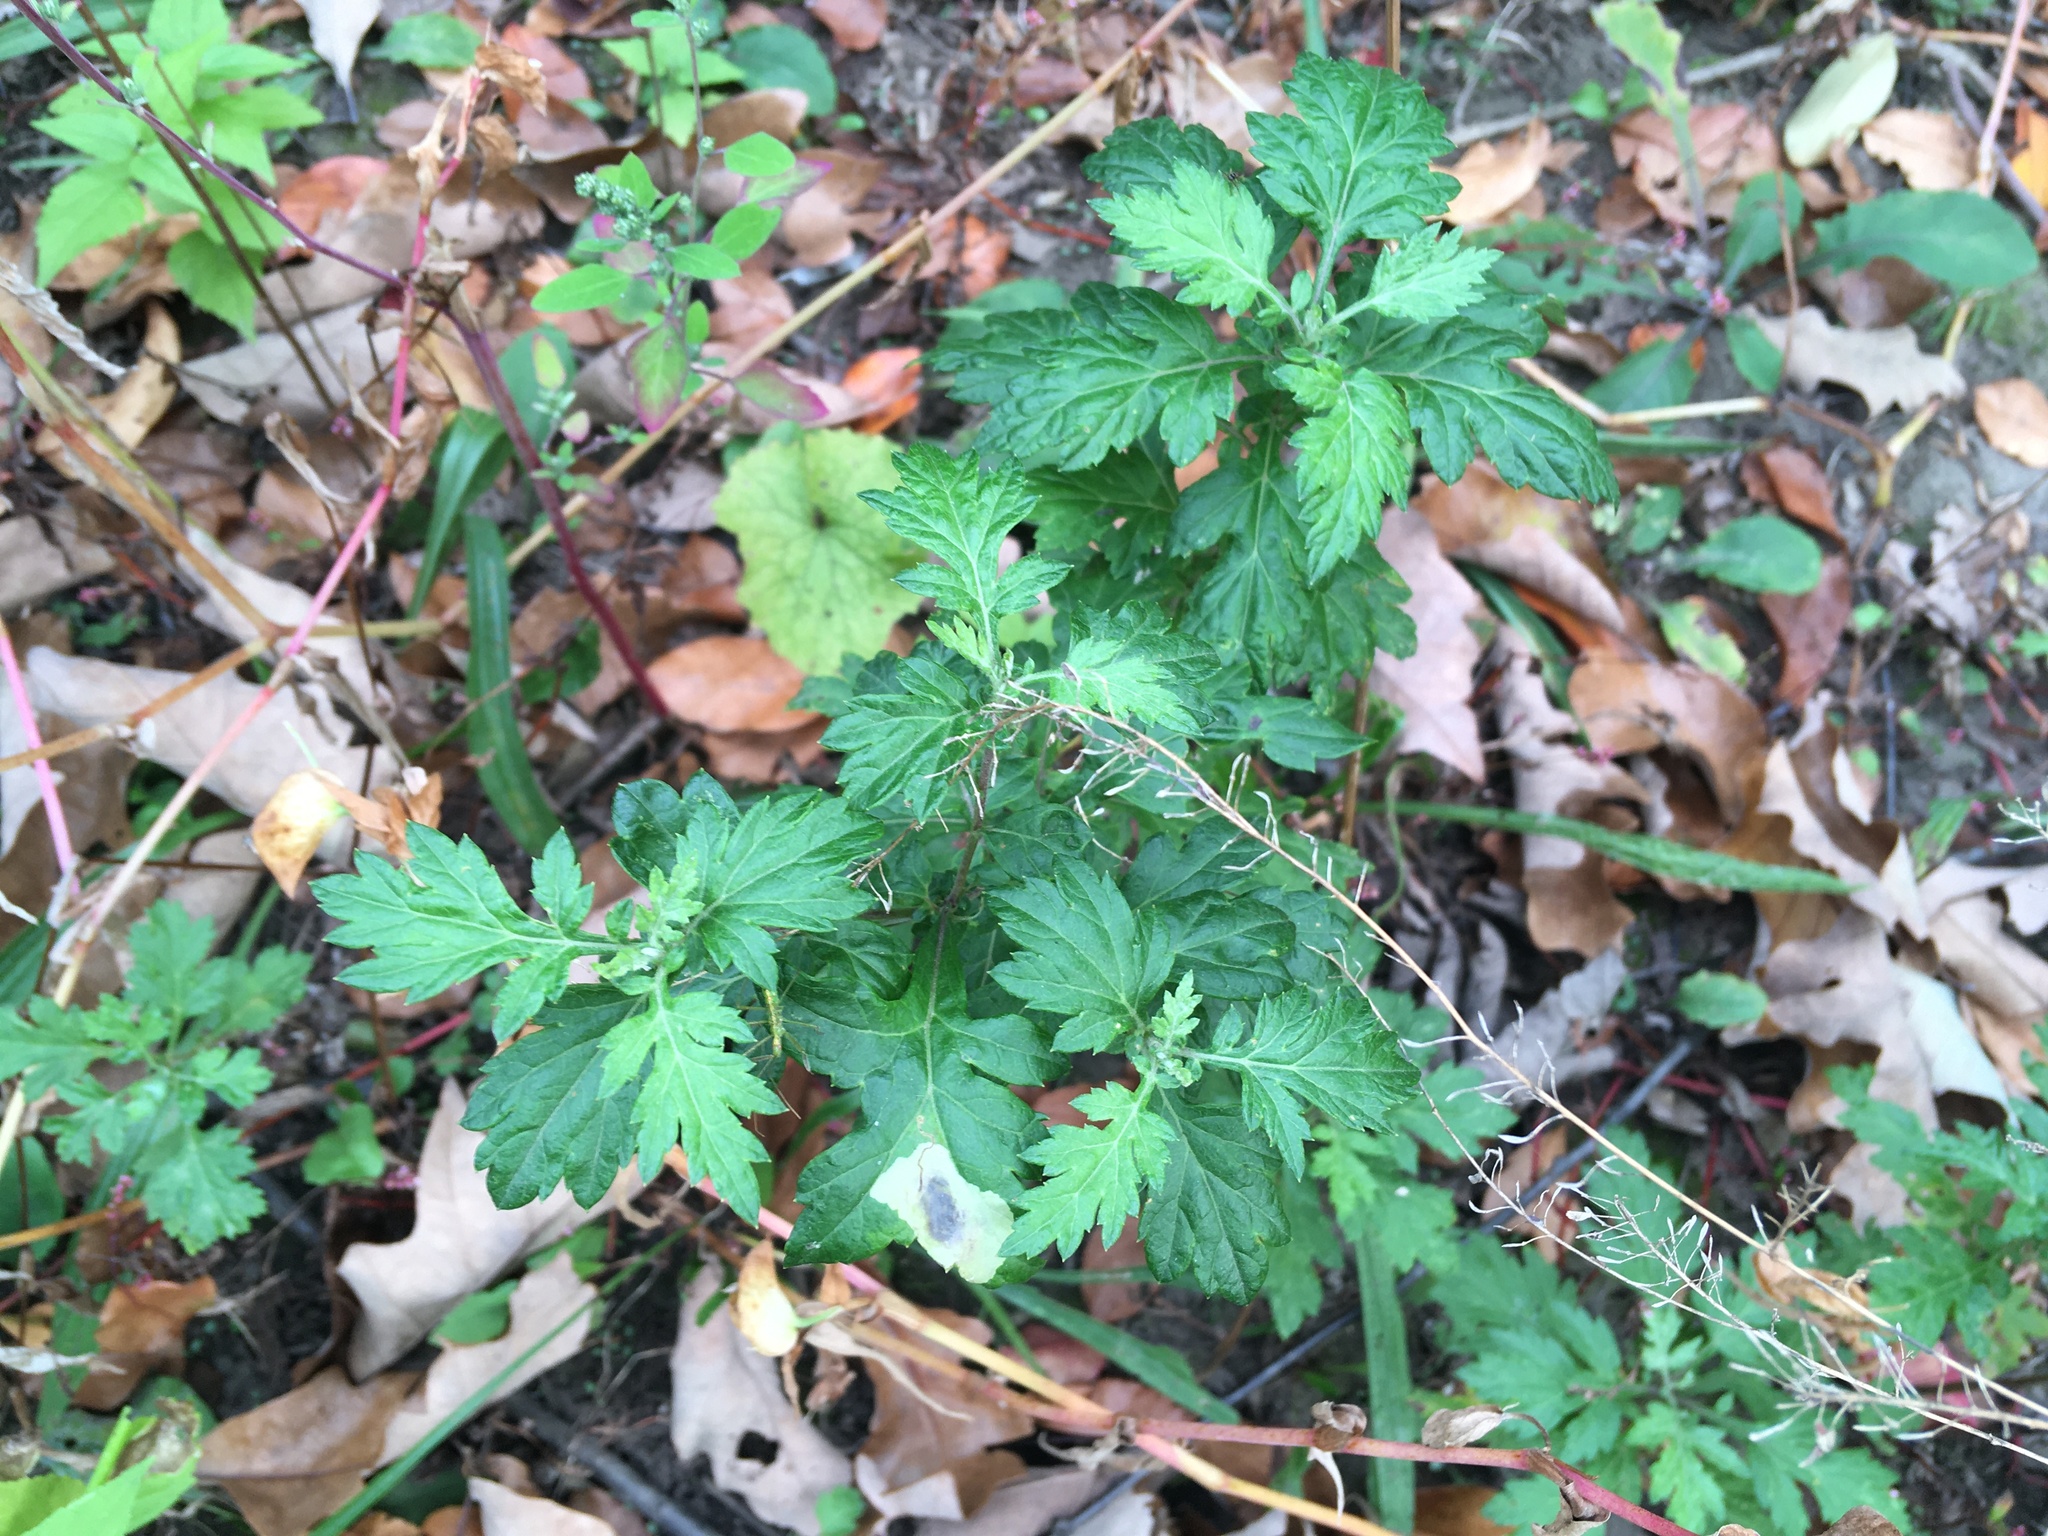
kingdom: Plantae
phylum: Tracheophyta
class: Magnoliopsida
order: Asterales
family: Asteraceae
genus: Artemisia
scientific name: Artemisia vulgaris
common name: Mugwort
